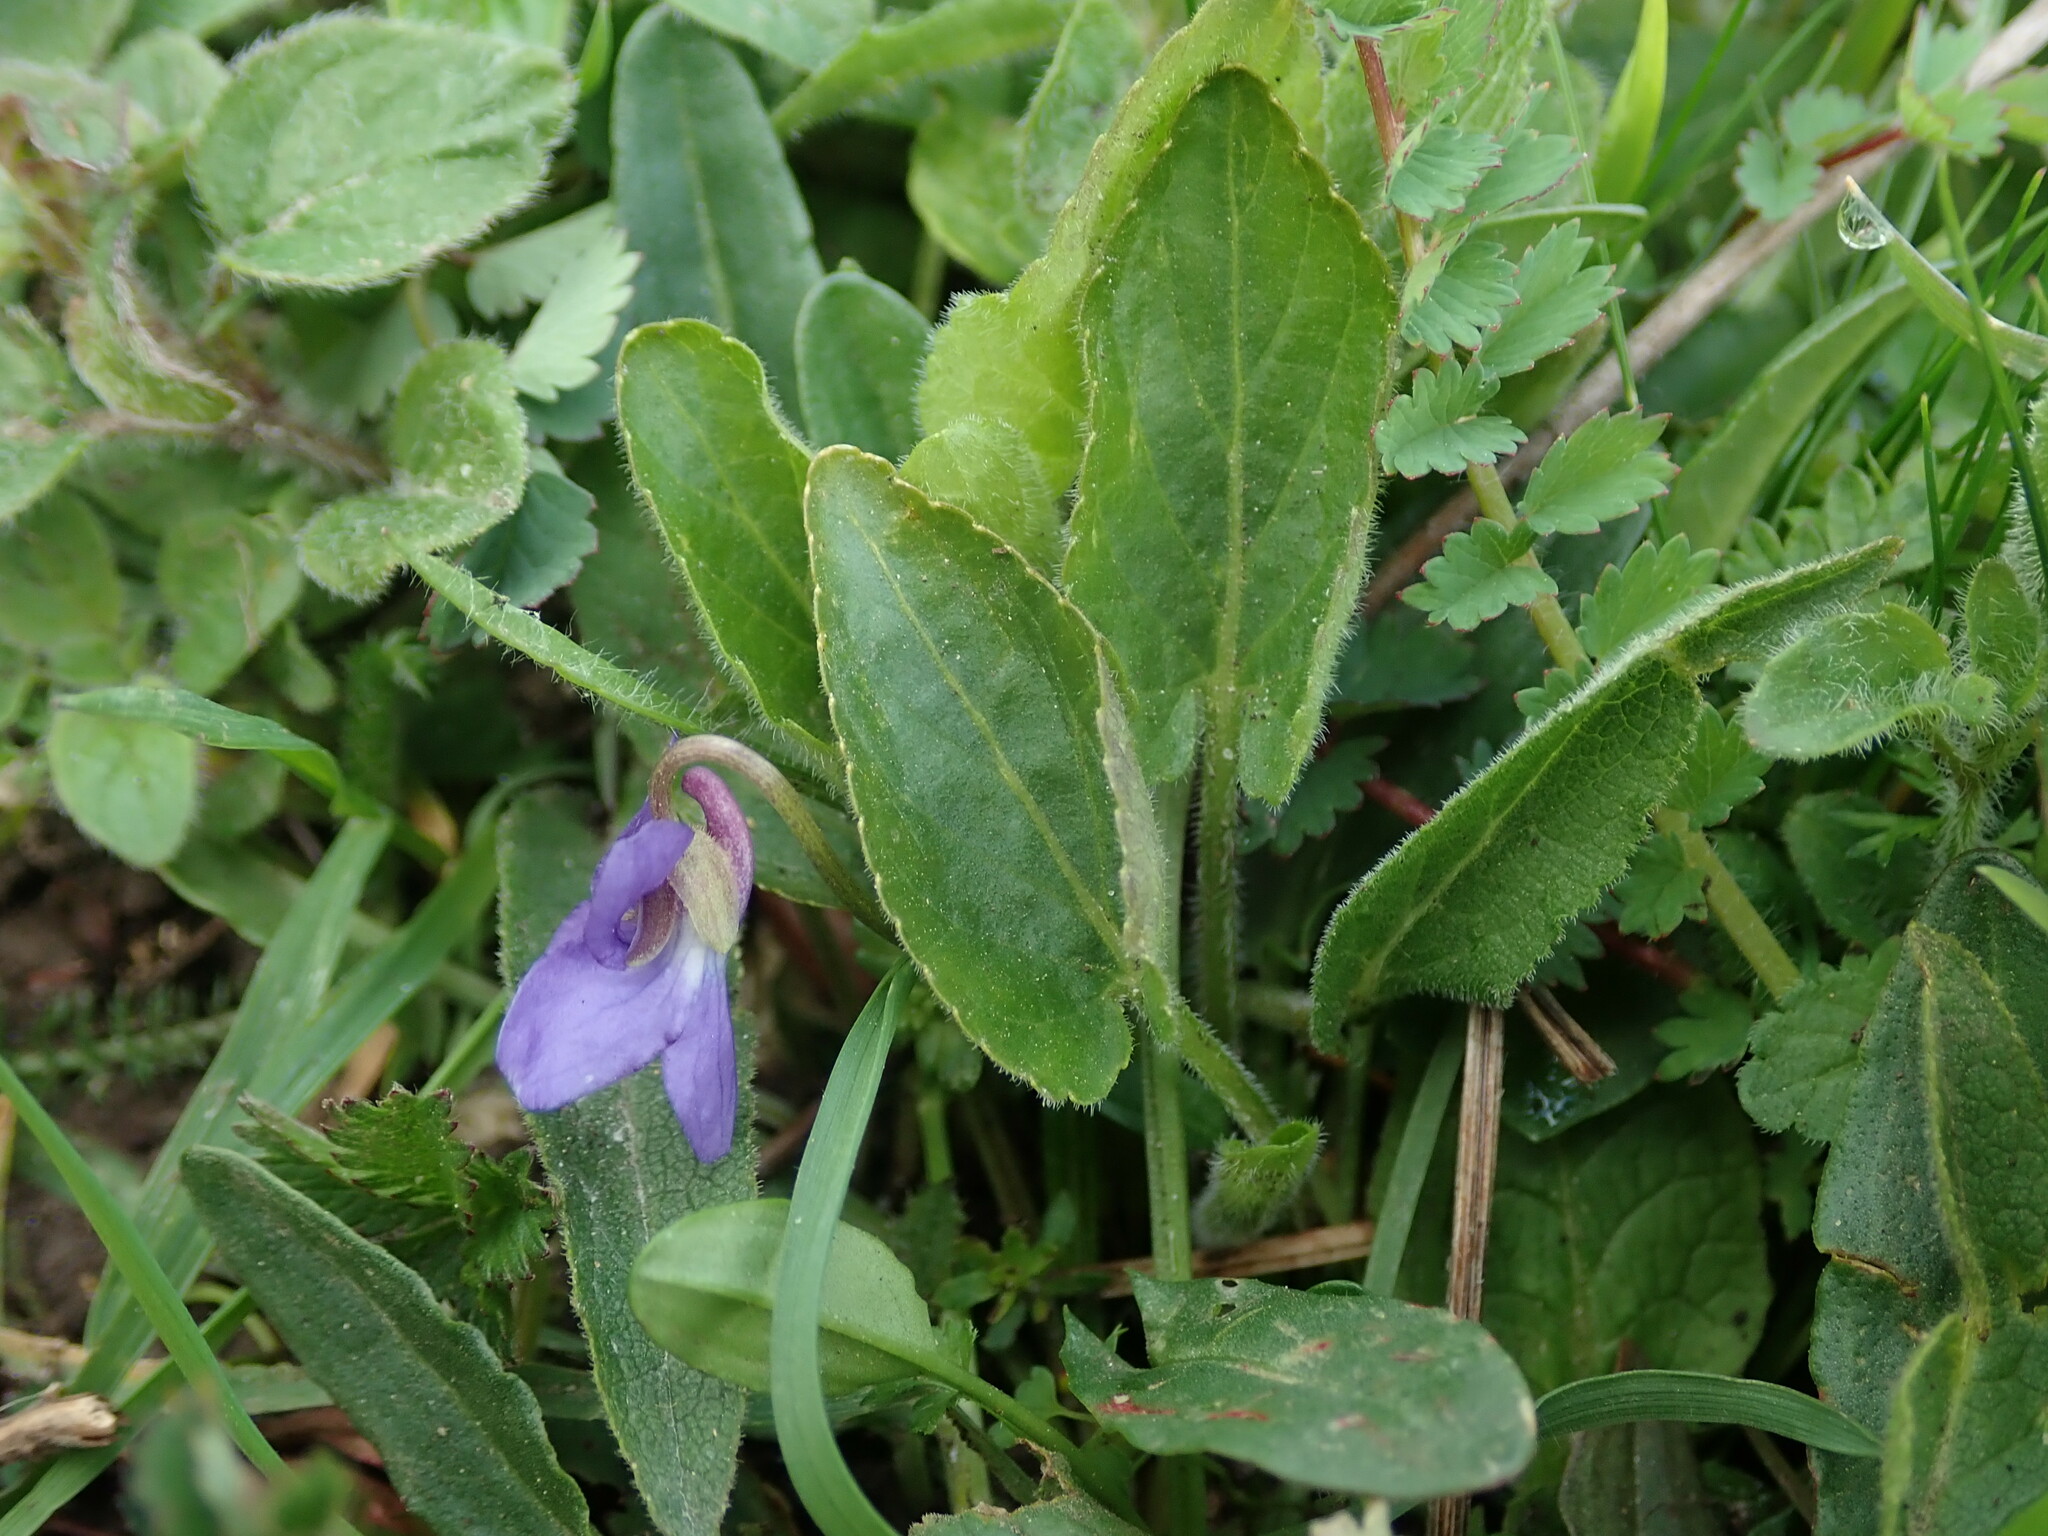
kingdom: Plantae
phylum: Tracheophyta
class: Magnoliopsida
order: Malpighiales
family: Violaceae
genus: Viola
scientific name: Viola hirta
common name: Hairy violet
